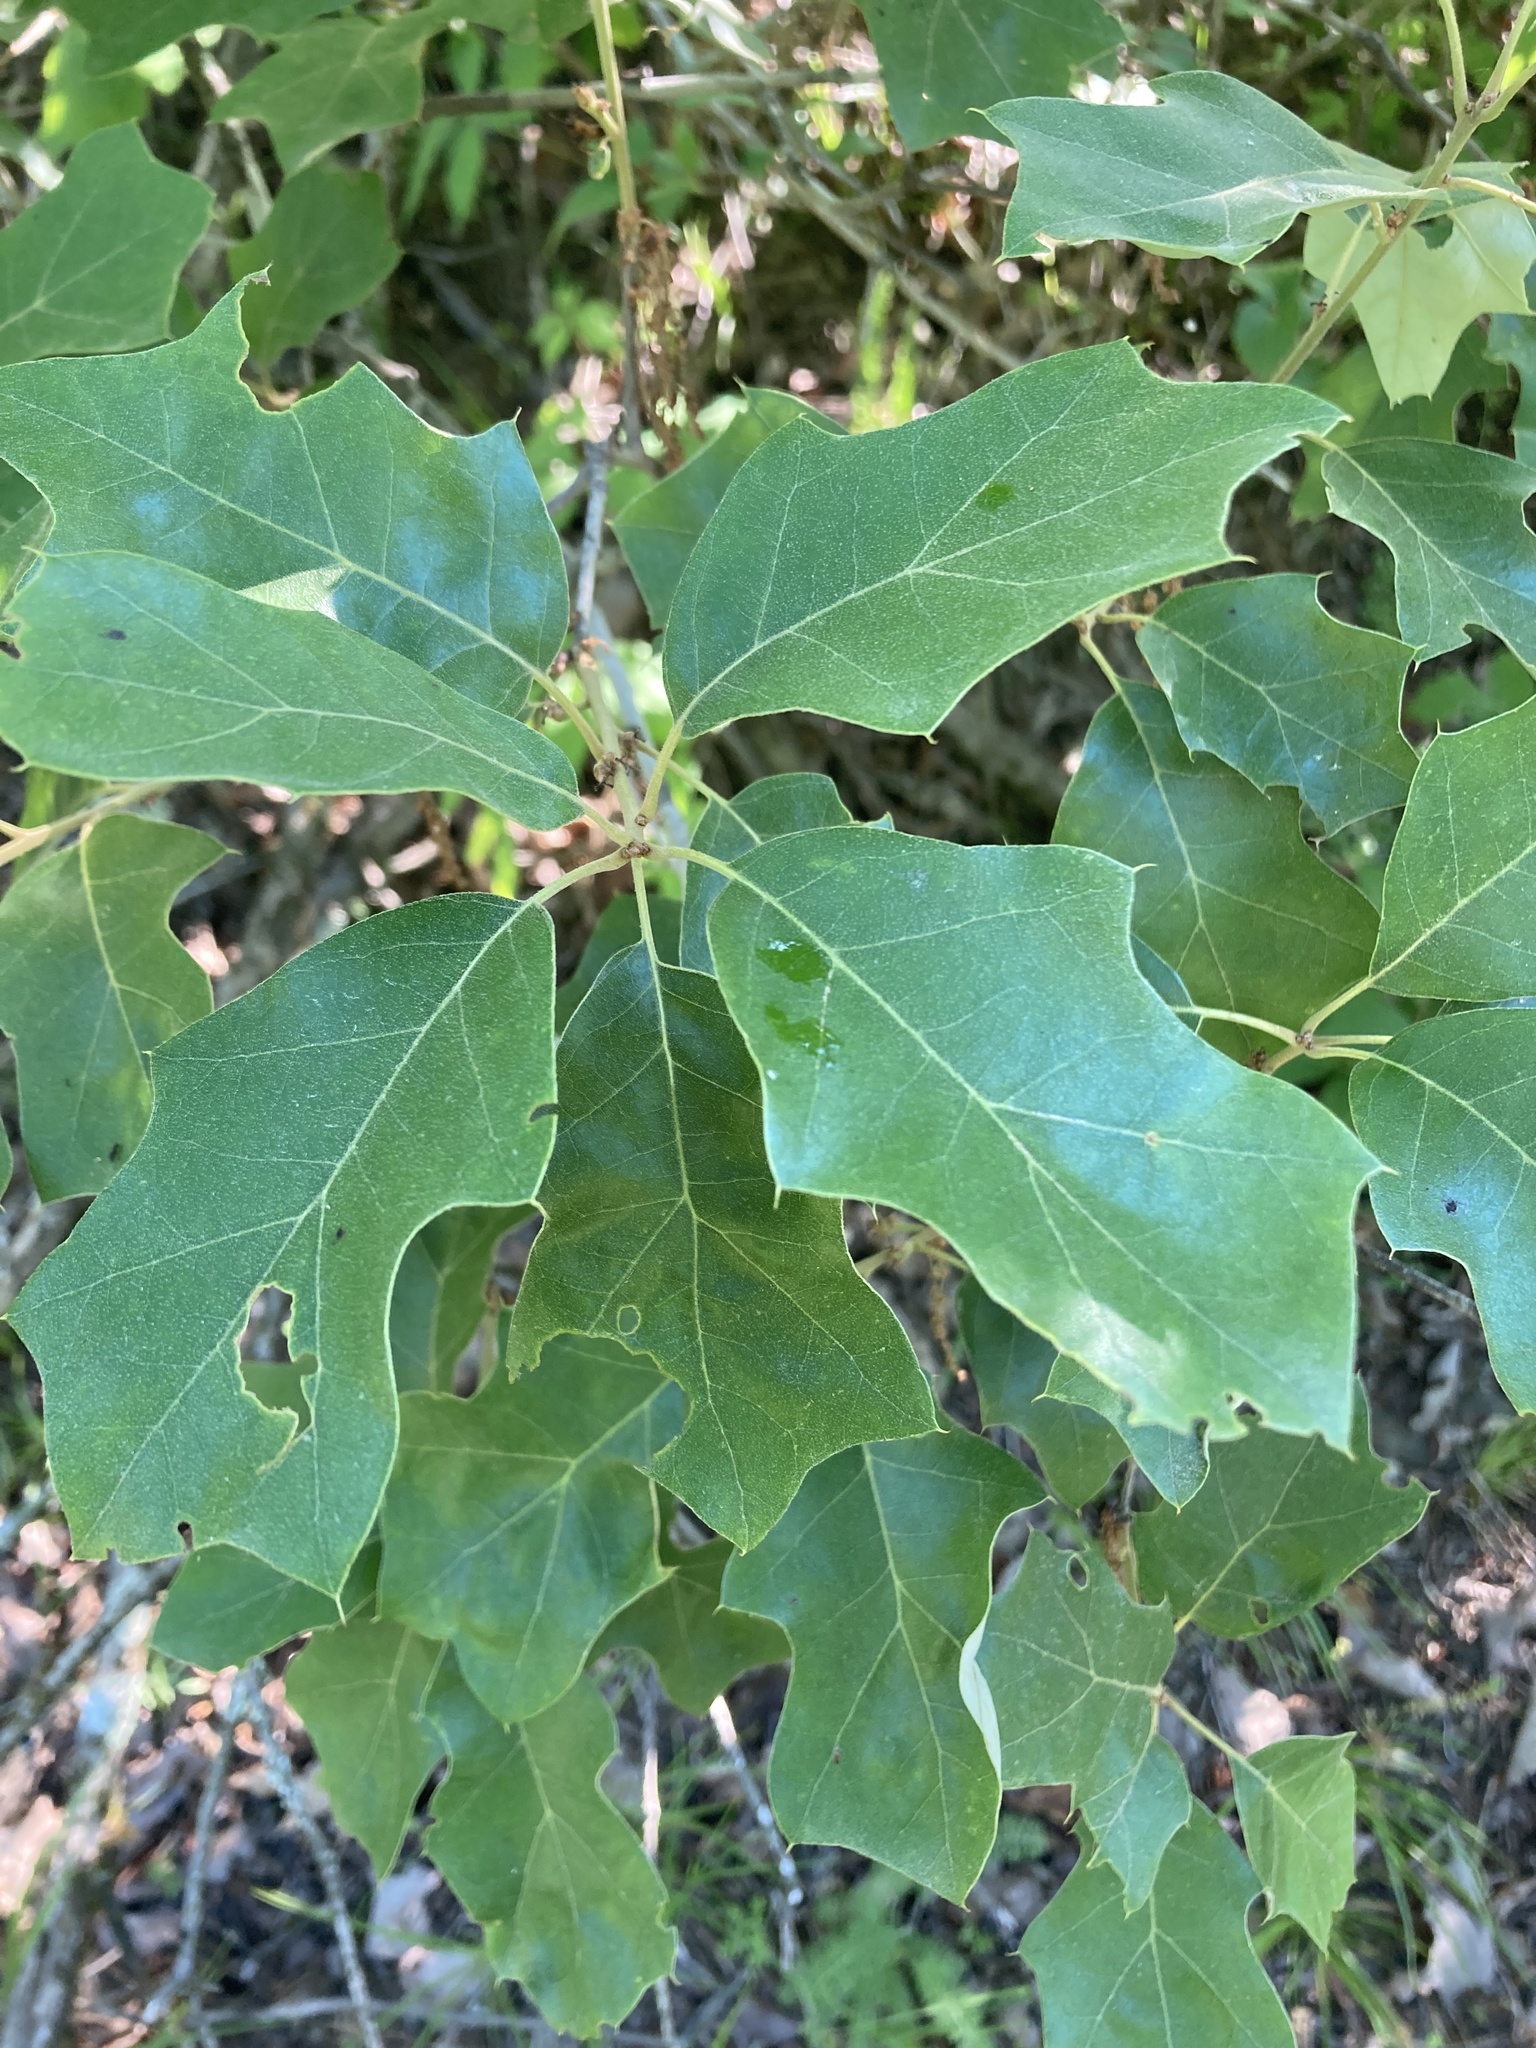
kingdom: Plantae
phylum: Tracheophyta
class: Magnoliopsida
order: Fagales
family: Fagaceae
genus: Quercus
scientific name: Quercus ilicifolia
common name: Bear oak
